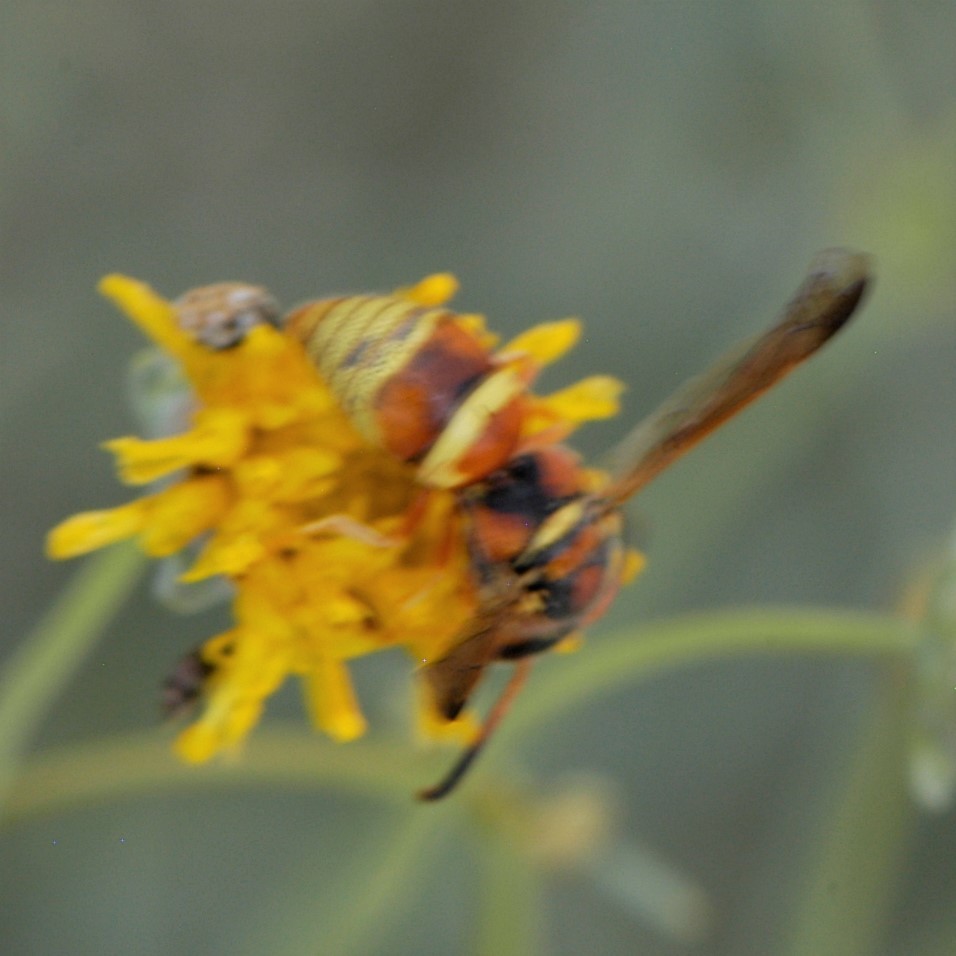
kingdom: Animalia
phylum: Arthropoda
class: Insecta
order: Hymenoptera
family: Eumenidae
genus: Euodynerus
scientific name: Euodynerus pratensis
